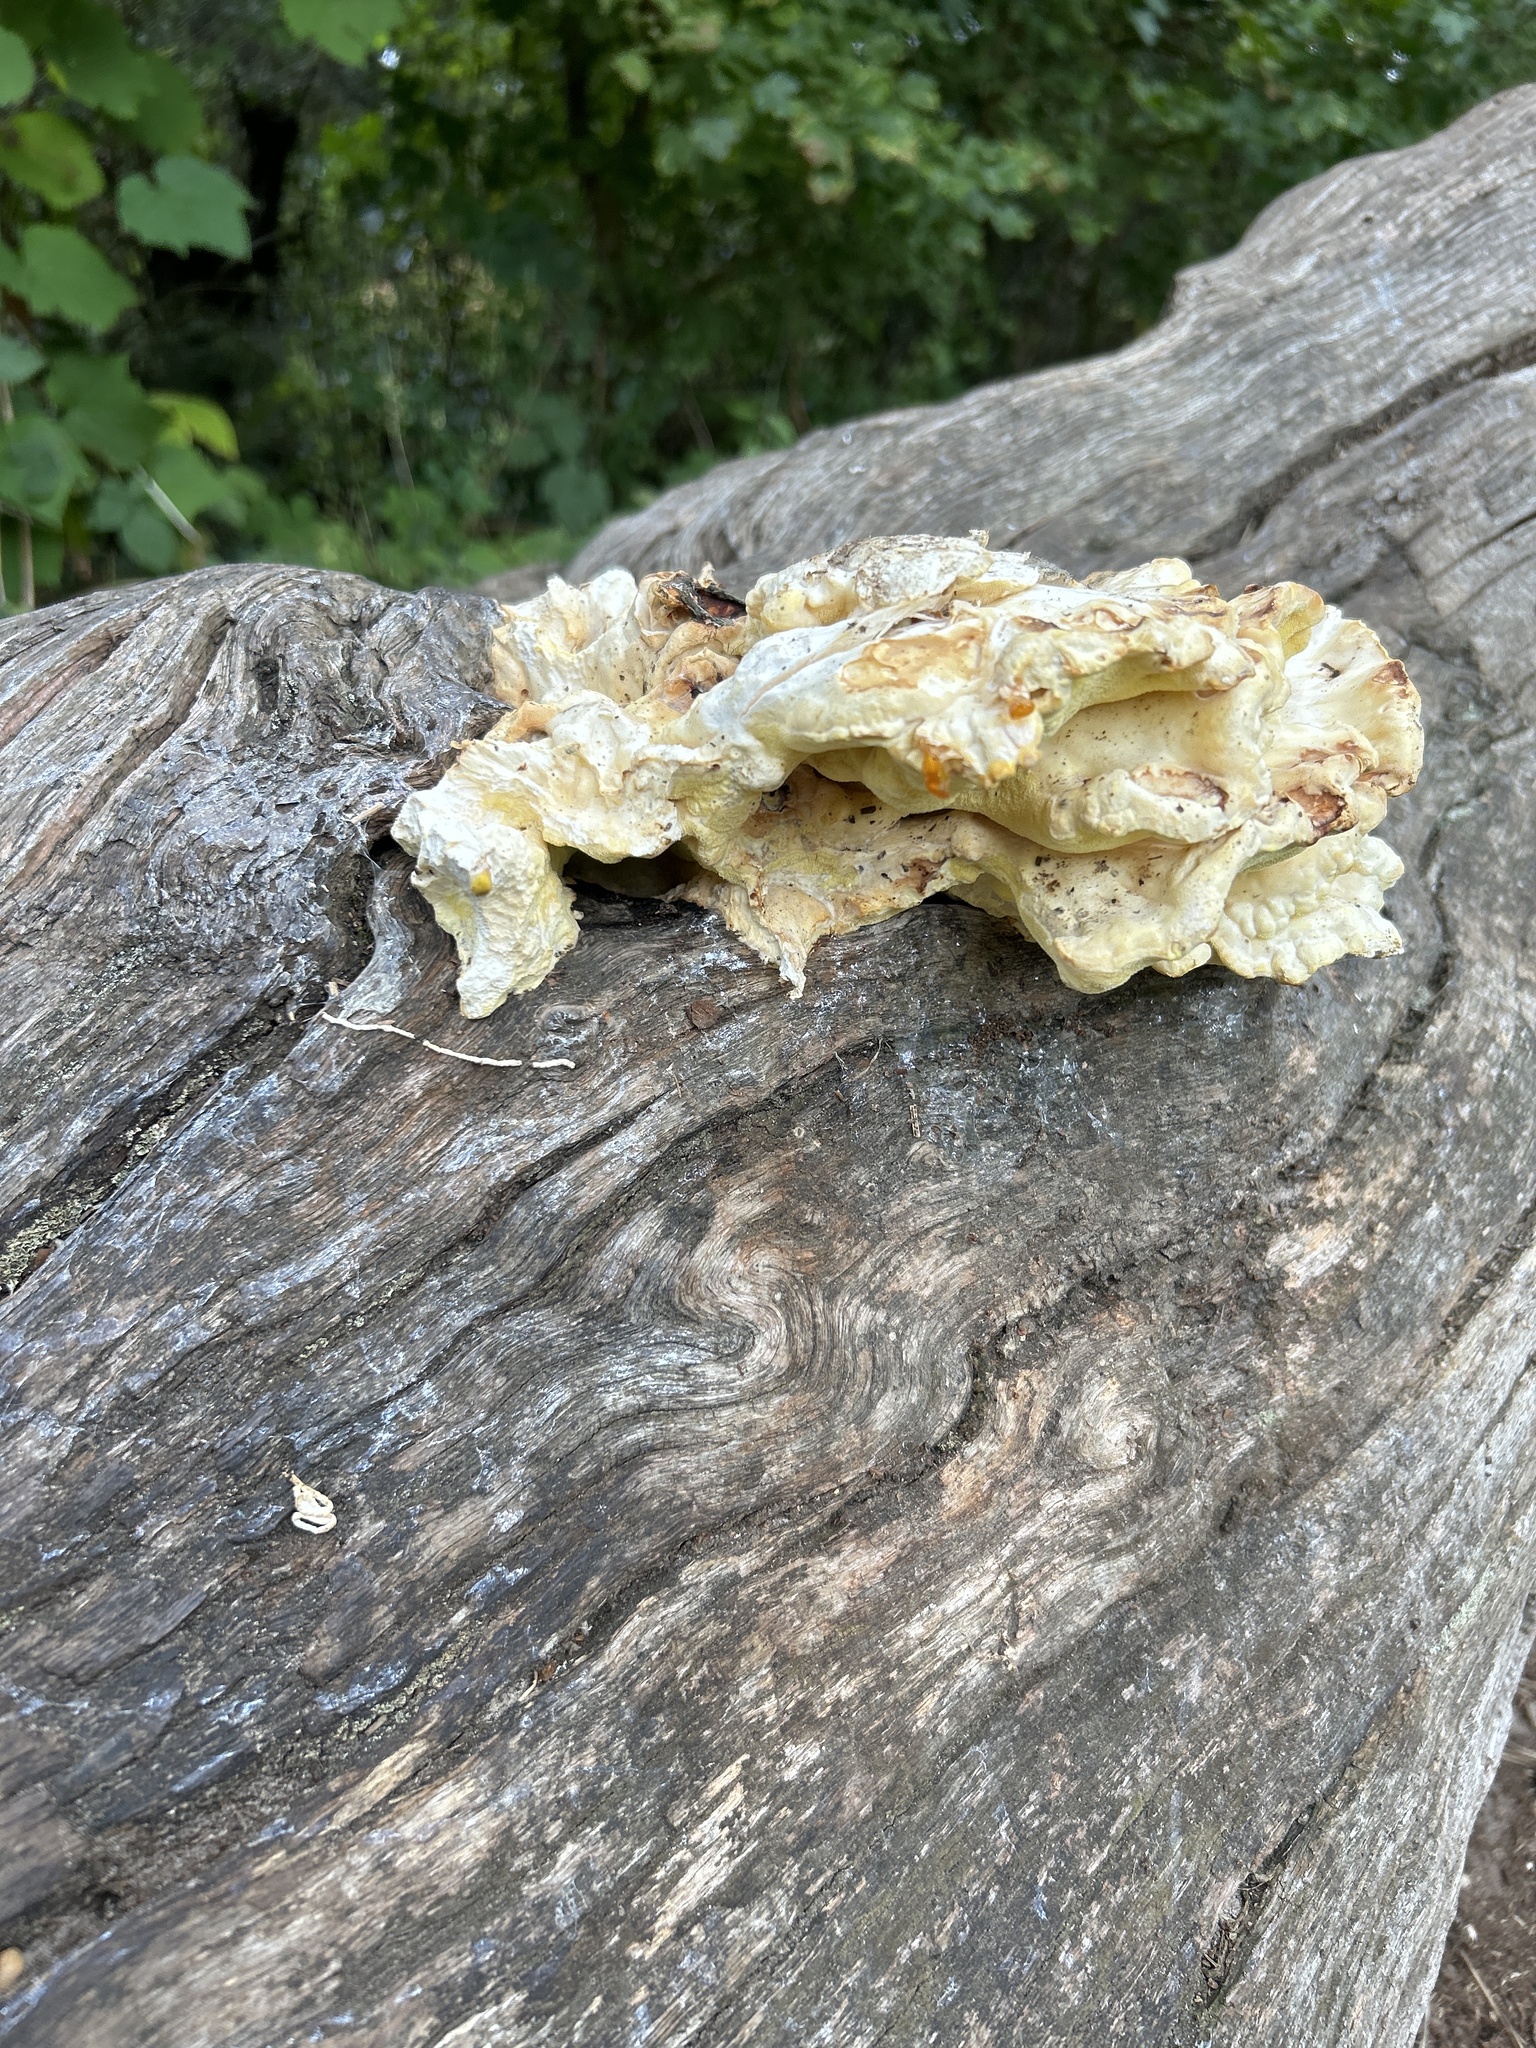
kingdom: Fungi
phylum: Basidiomycota
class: Agaricomycetes
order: Polyporales
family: Laetiporaceae
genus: Laetiporus
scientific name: Laetiporus sulphureus
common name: Chicken of the woods
